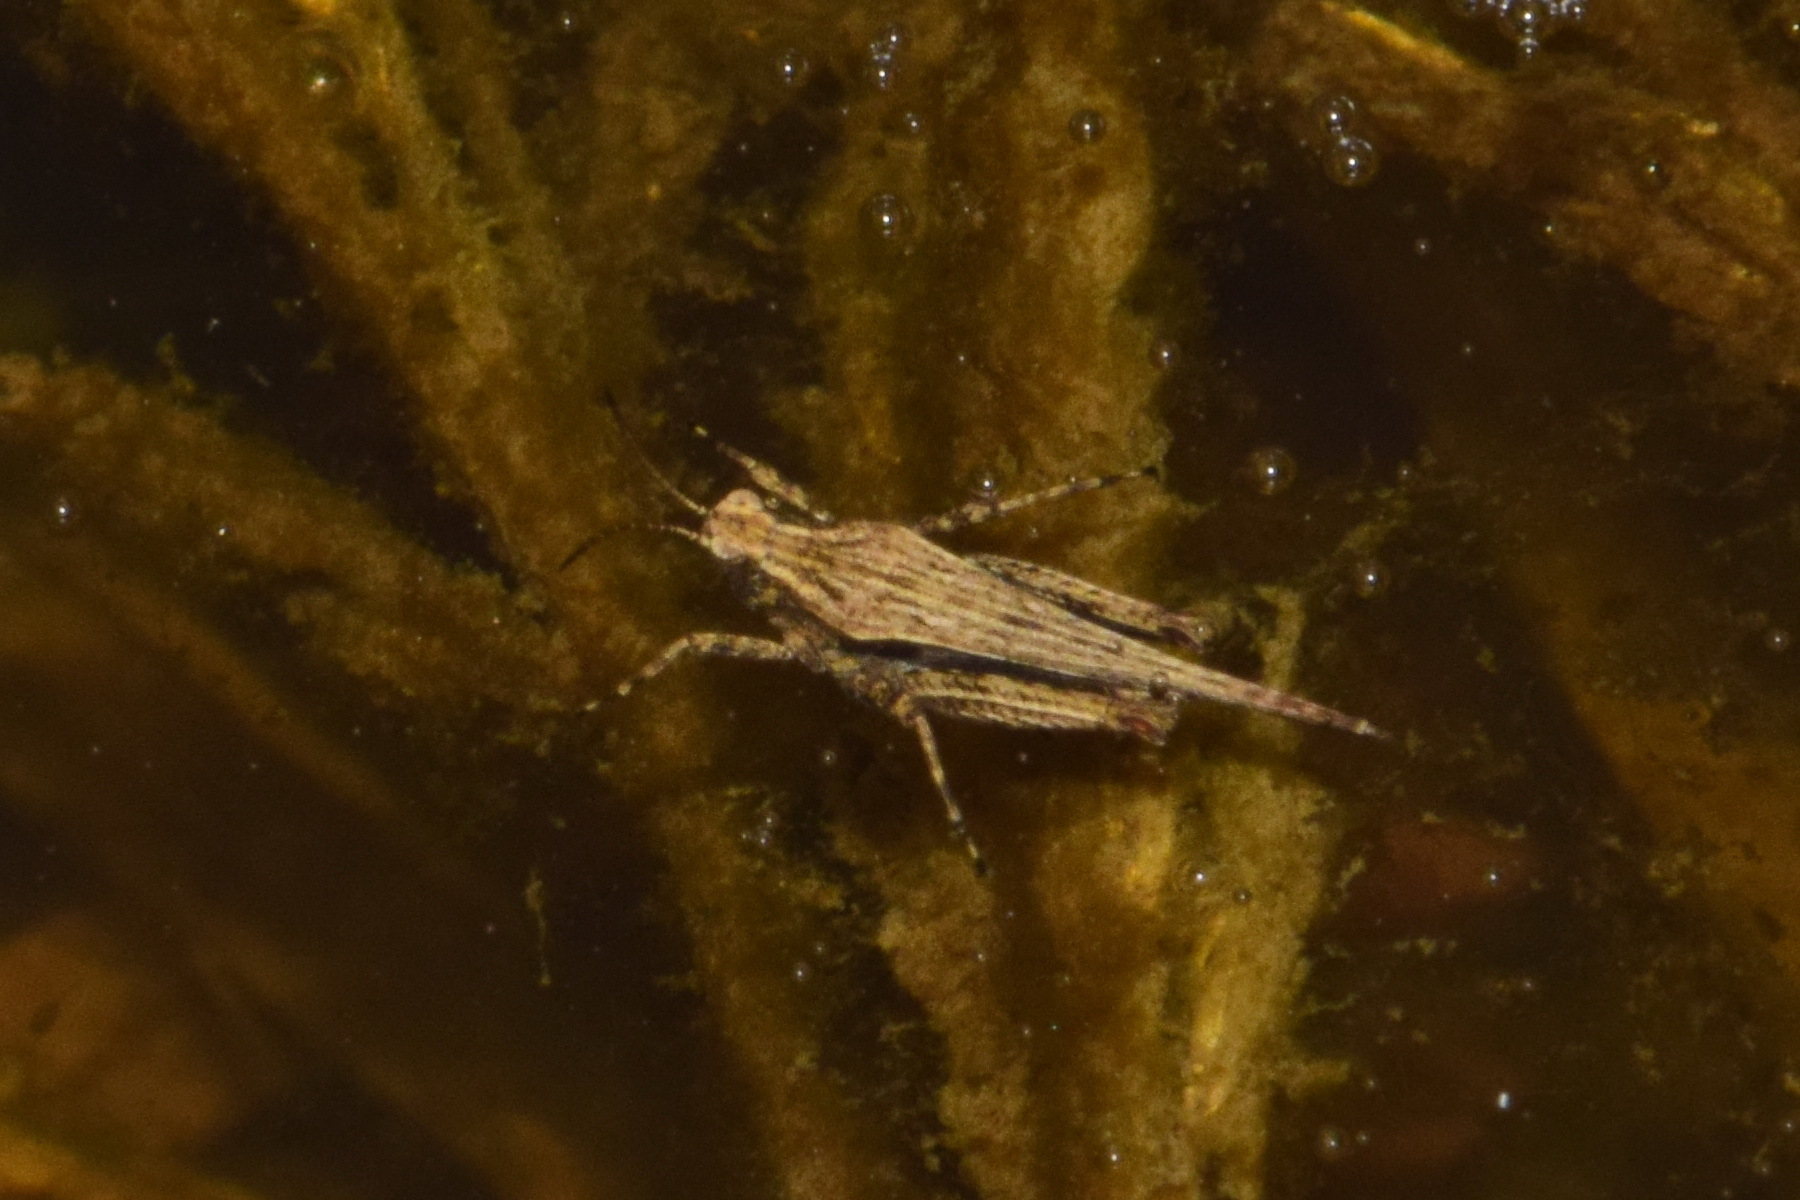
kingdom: Animalia
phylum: Arthropoda
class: Insecta
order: Orthoptera
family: Tetrigidae
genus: Tetrix
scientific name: Tetrix subulata
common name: Slender ground-hopper
